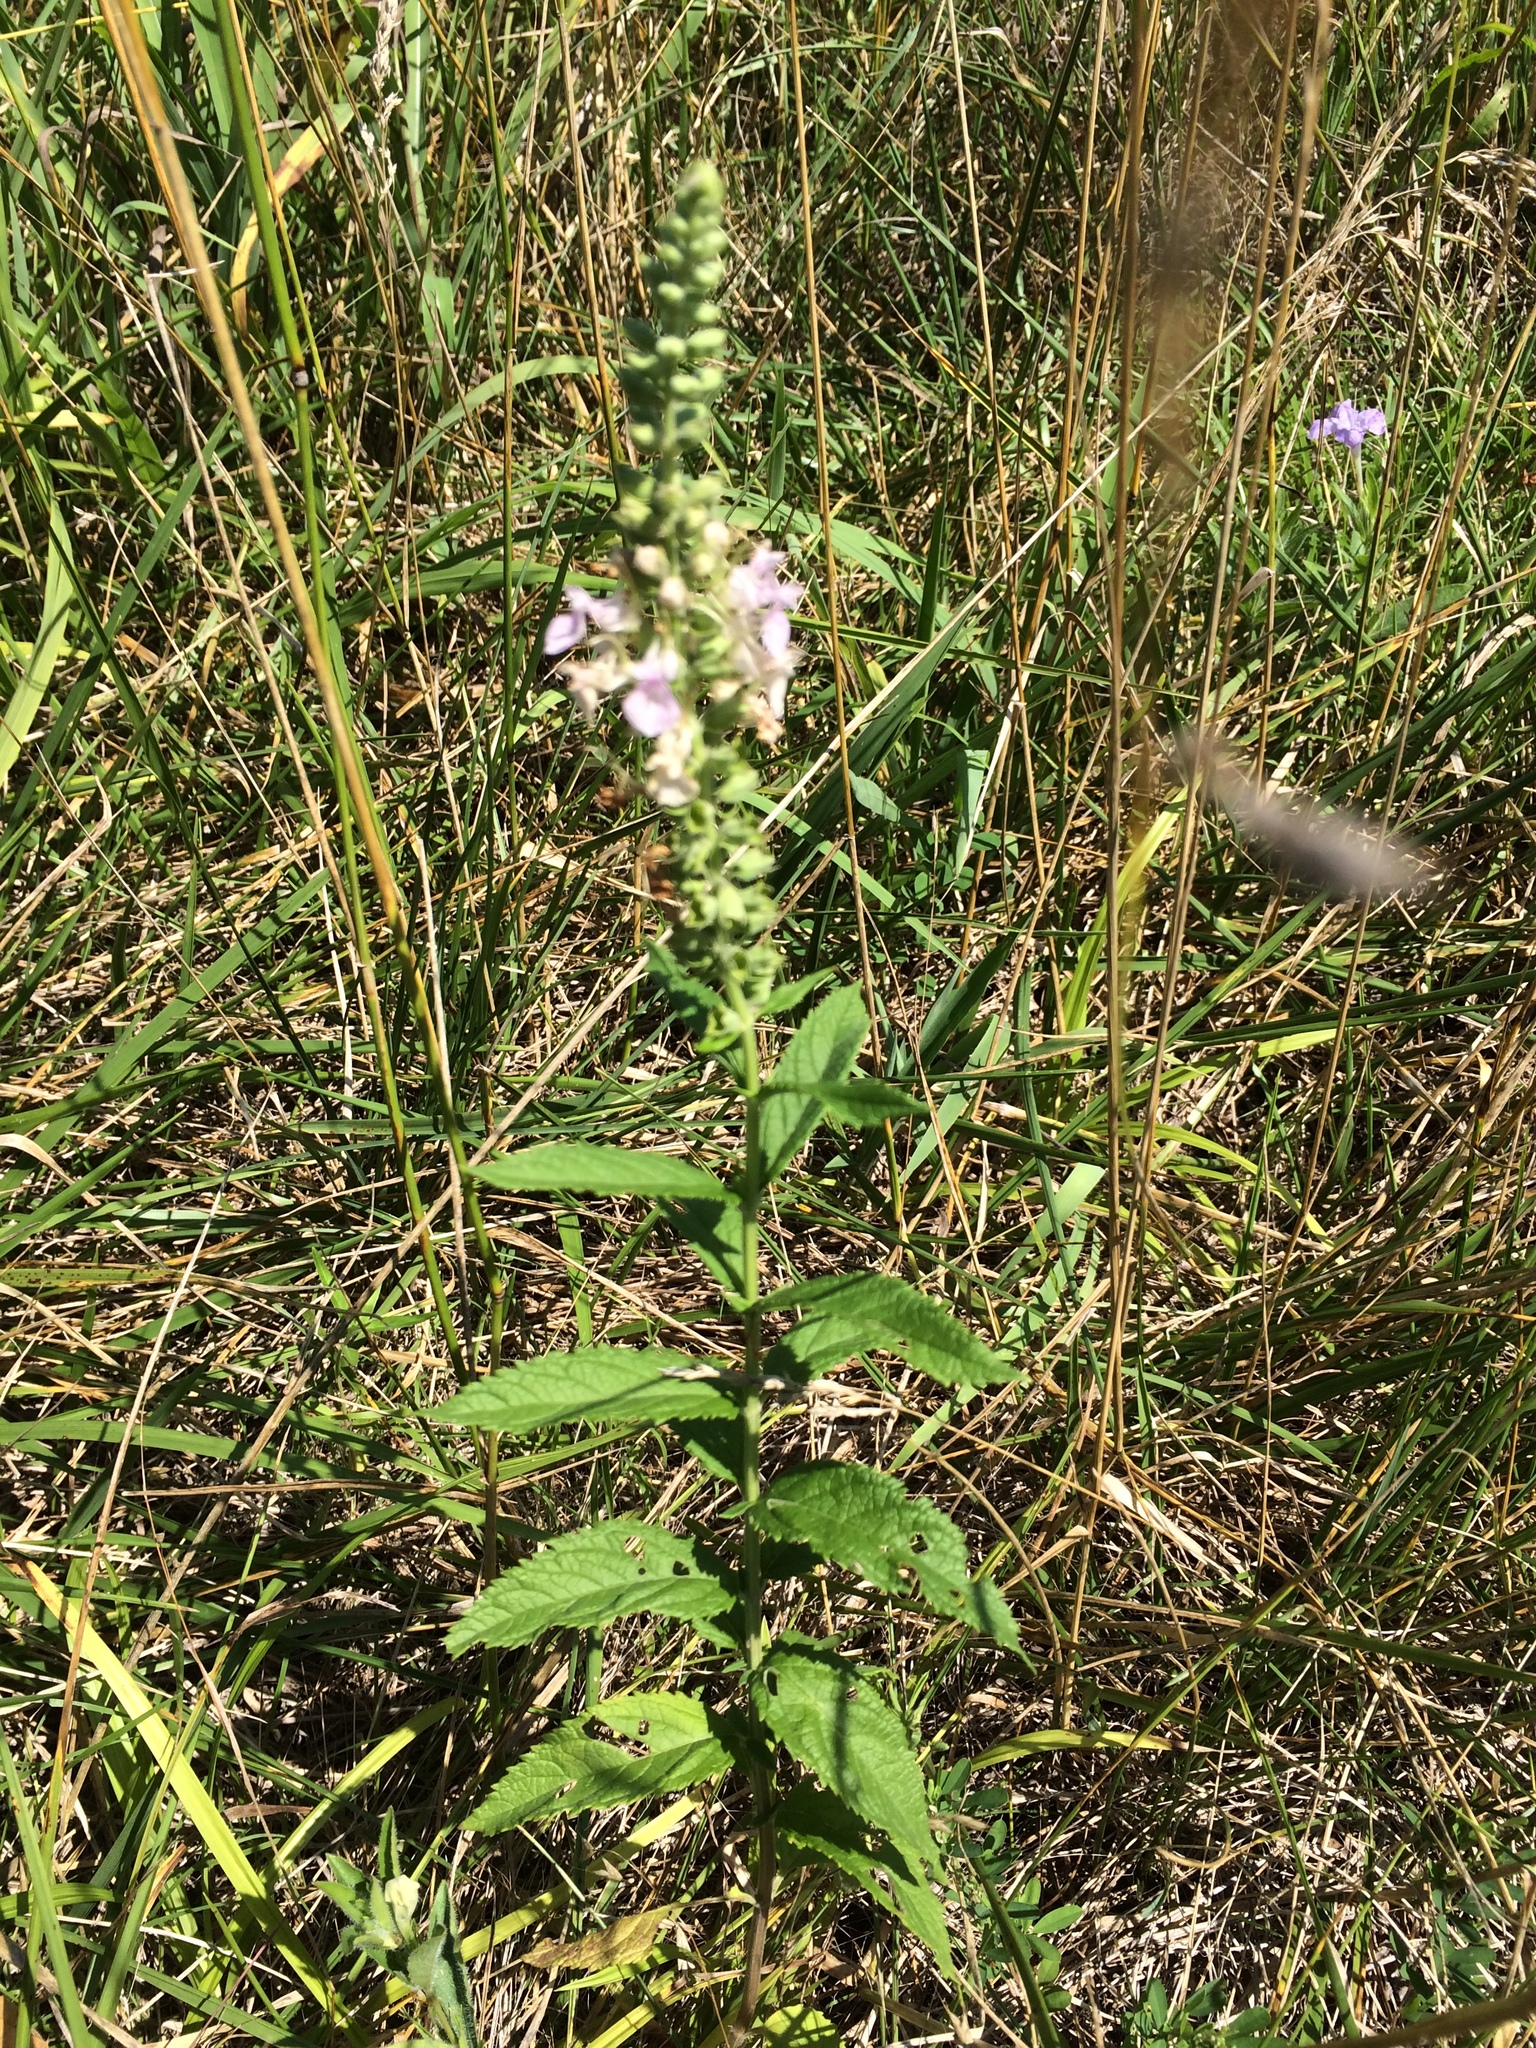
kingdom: Plantae
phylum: Tracheophyta
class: Magnoliopsida
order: Lamiales
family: Lamiaceae
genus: Teucrium
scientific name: Teucrium canadense
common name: American germander
